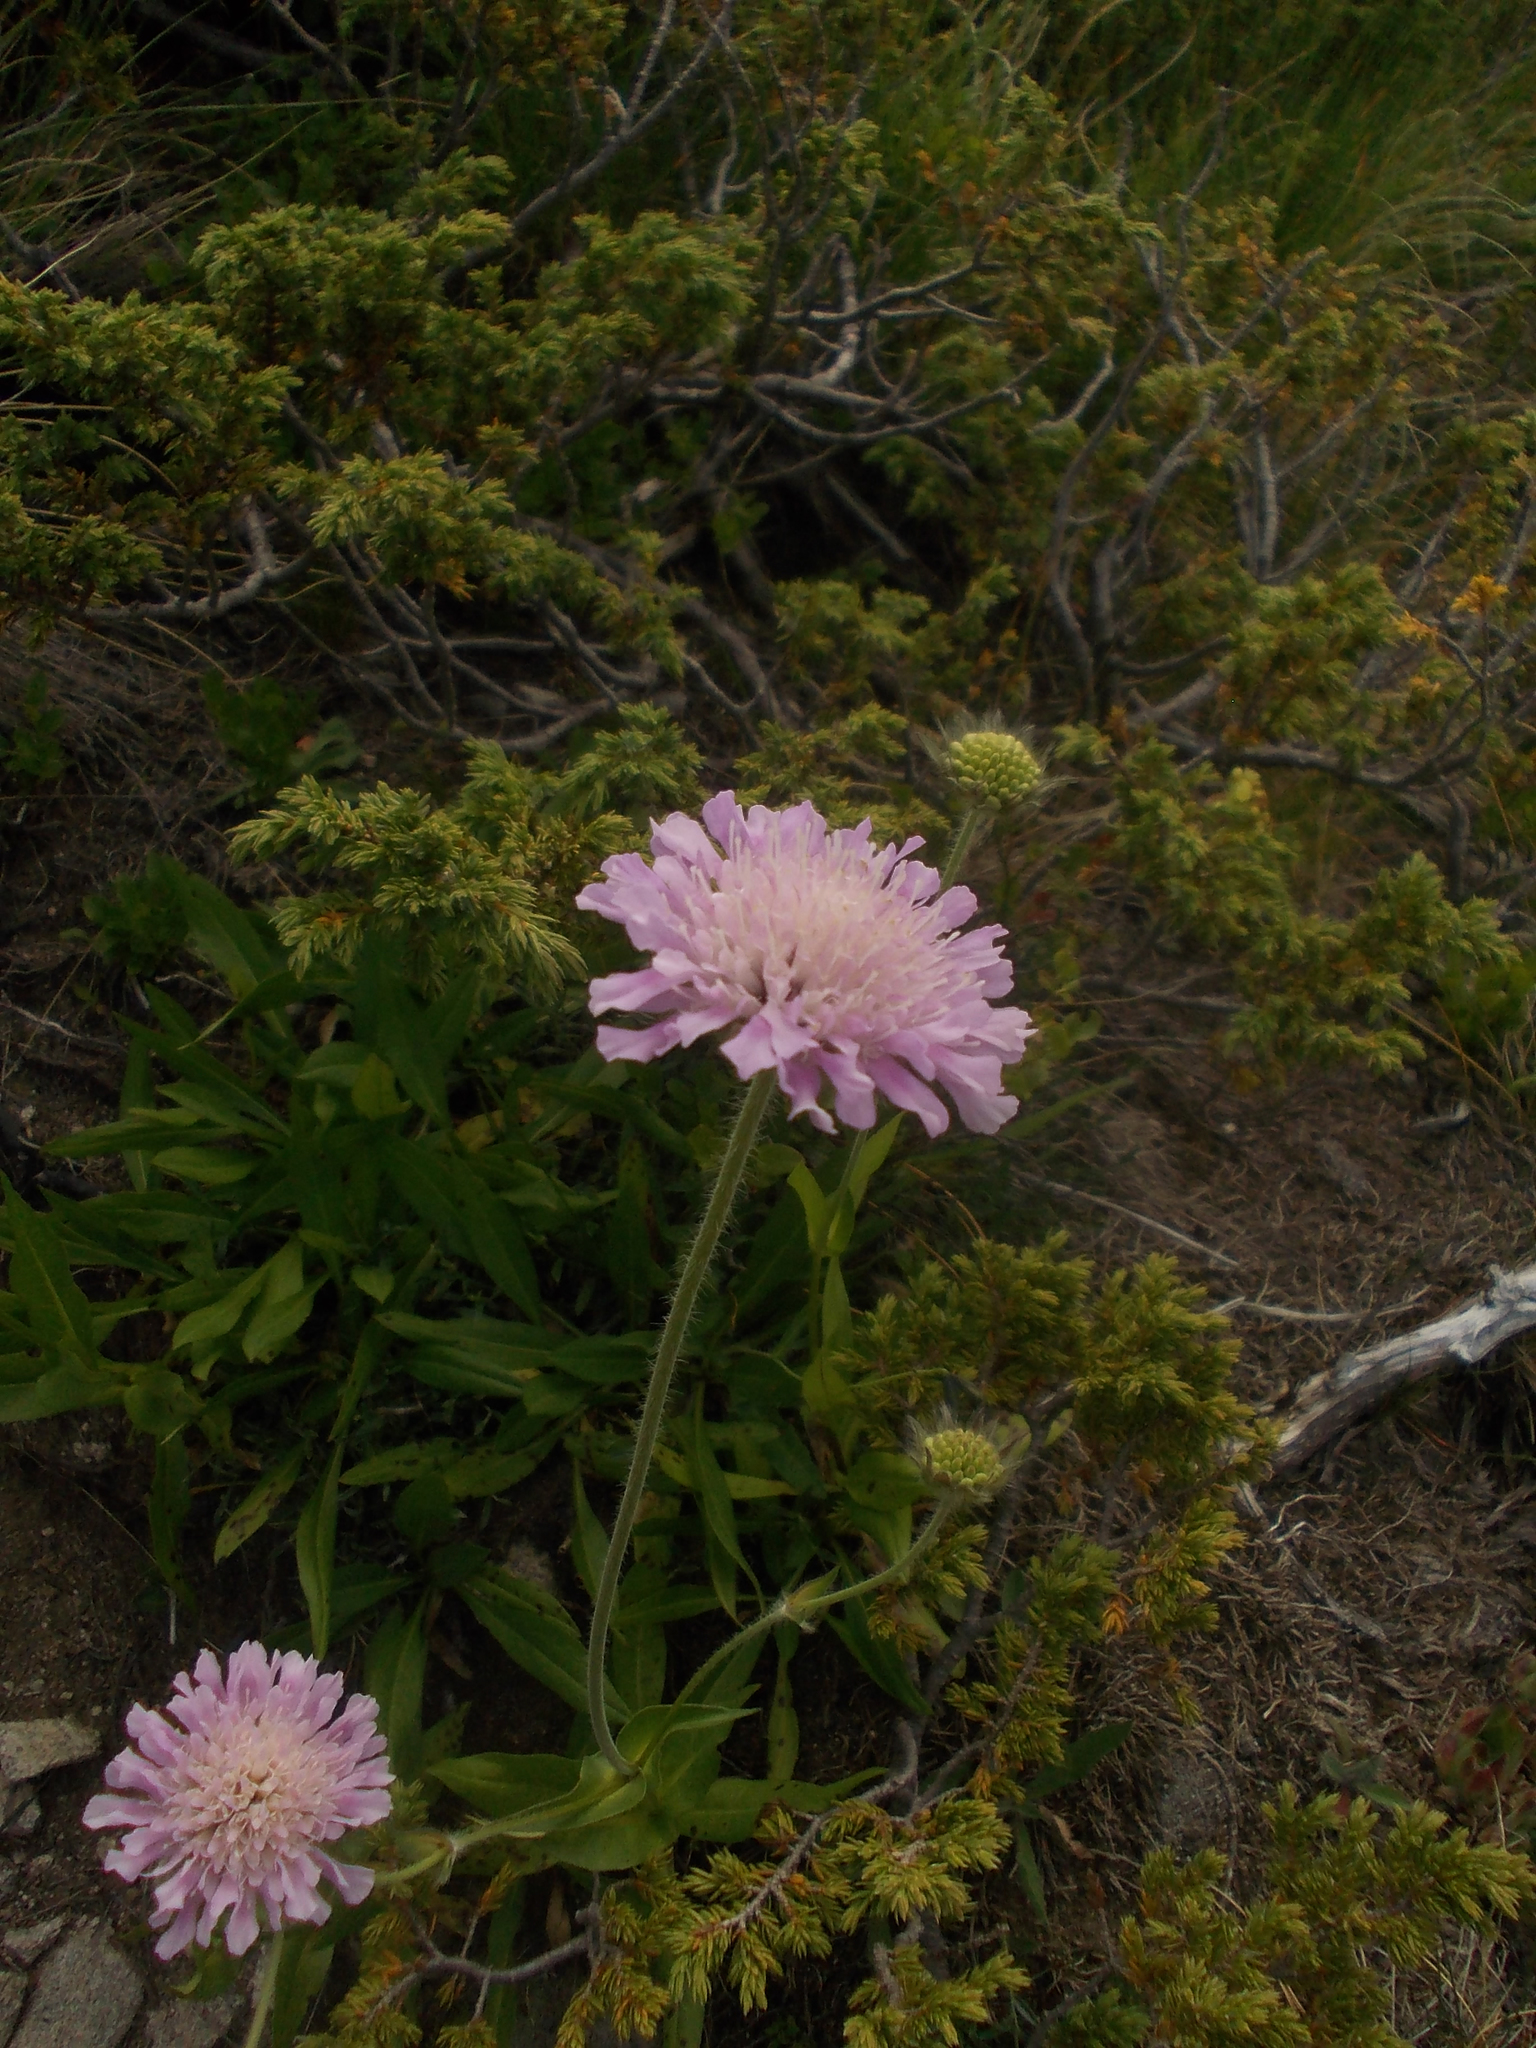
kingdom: Plantae
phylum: Tracheophyta
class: Magnoliopsida
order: Dipsacales
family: Caprifoliaceae
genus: Knautia
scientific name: Knautia midzorensis
